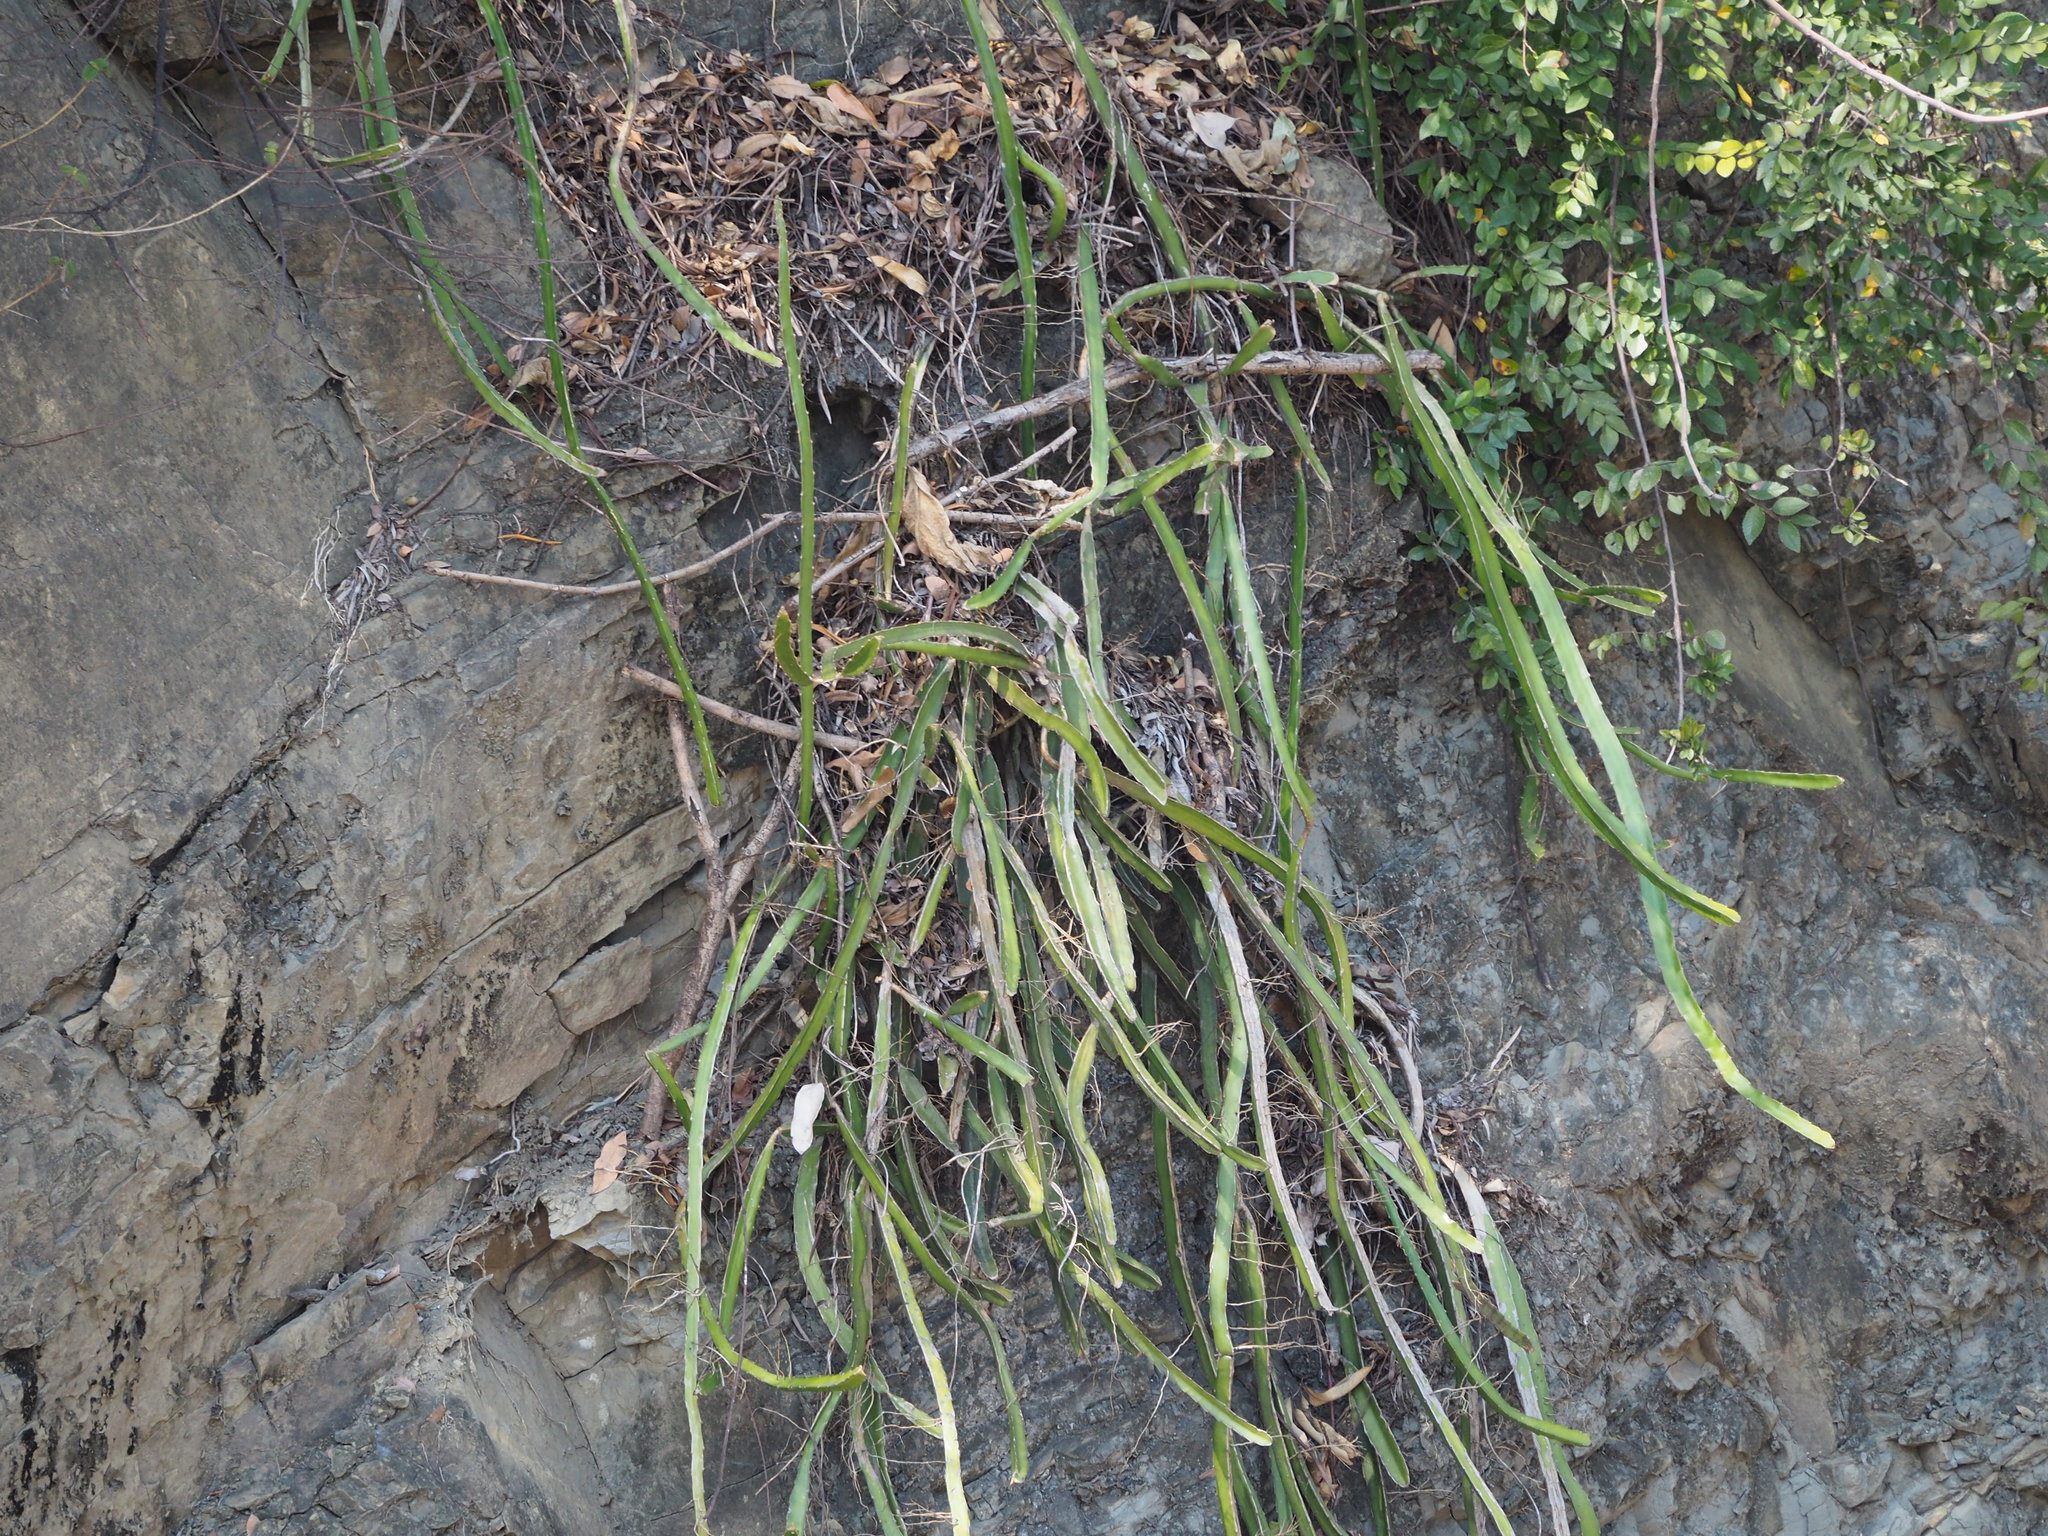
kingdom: Plantae
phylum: Tracheophyta
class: Magnoliopsida
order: Caryophyllales
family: Cactaceae
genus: Selenicereus
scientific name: Selenicereus undatus
